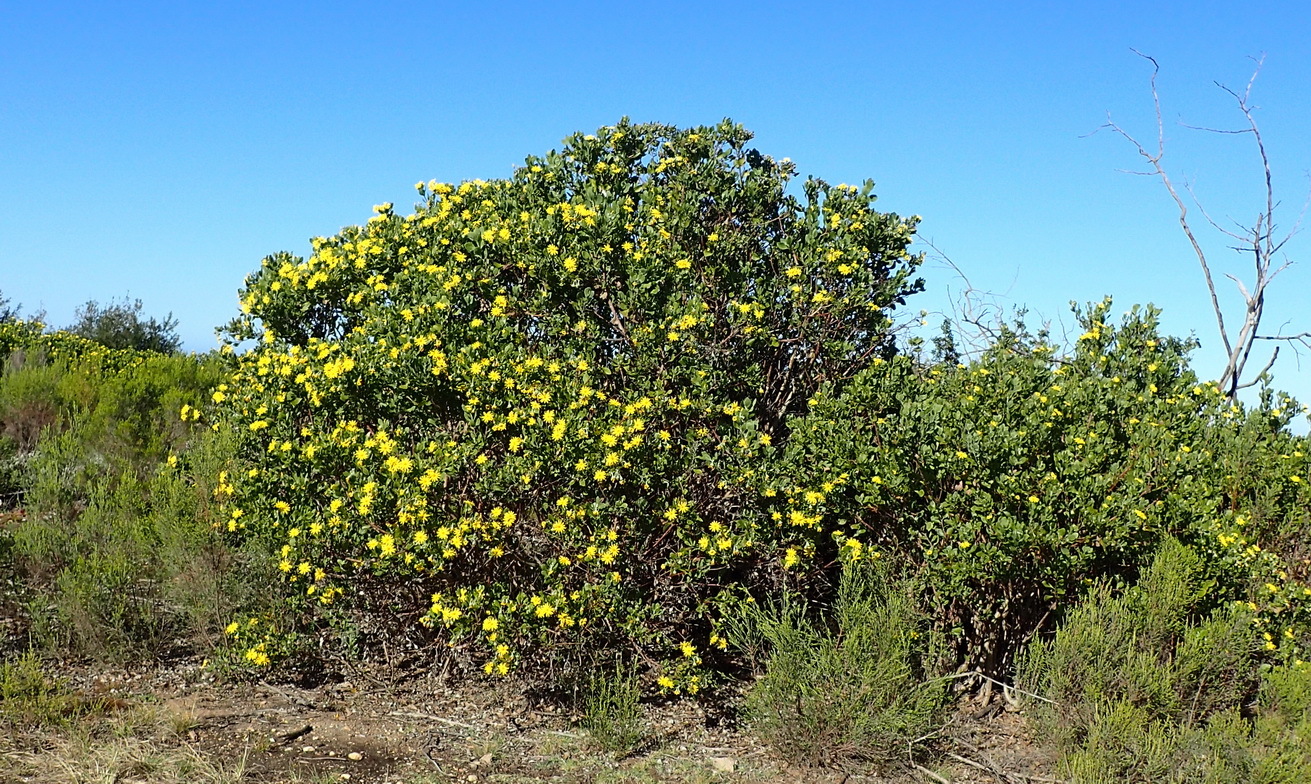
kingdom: Plantae
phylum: Tracheophyta
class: Magnoliopsida
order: Asterales
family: Asteraceae
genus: Osteospermum
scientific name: Osteospermum moniliferum
